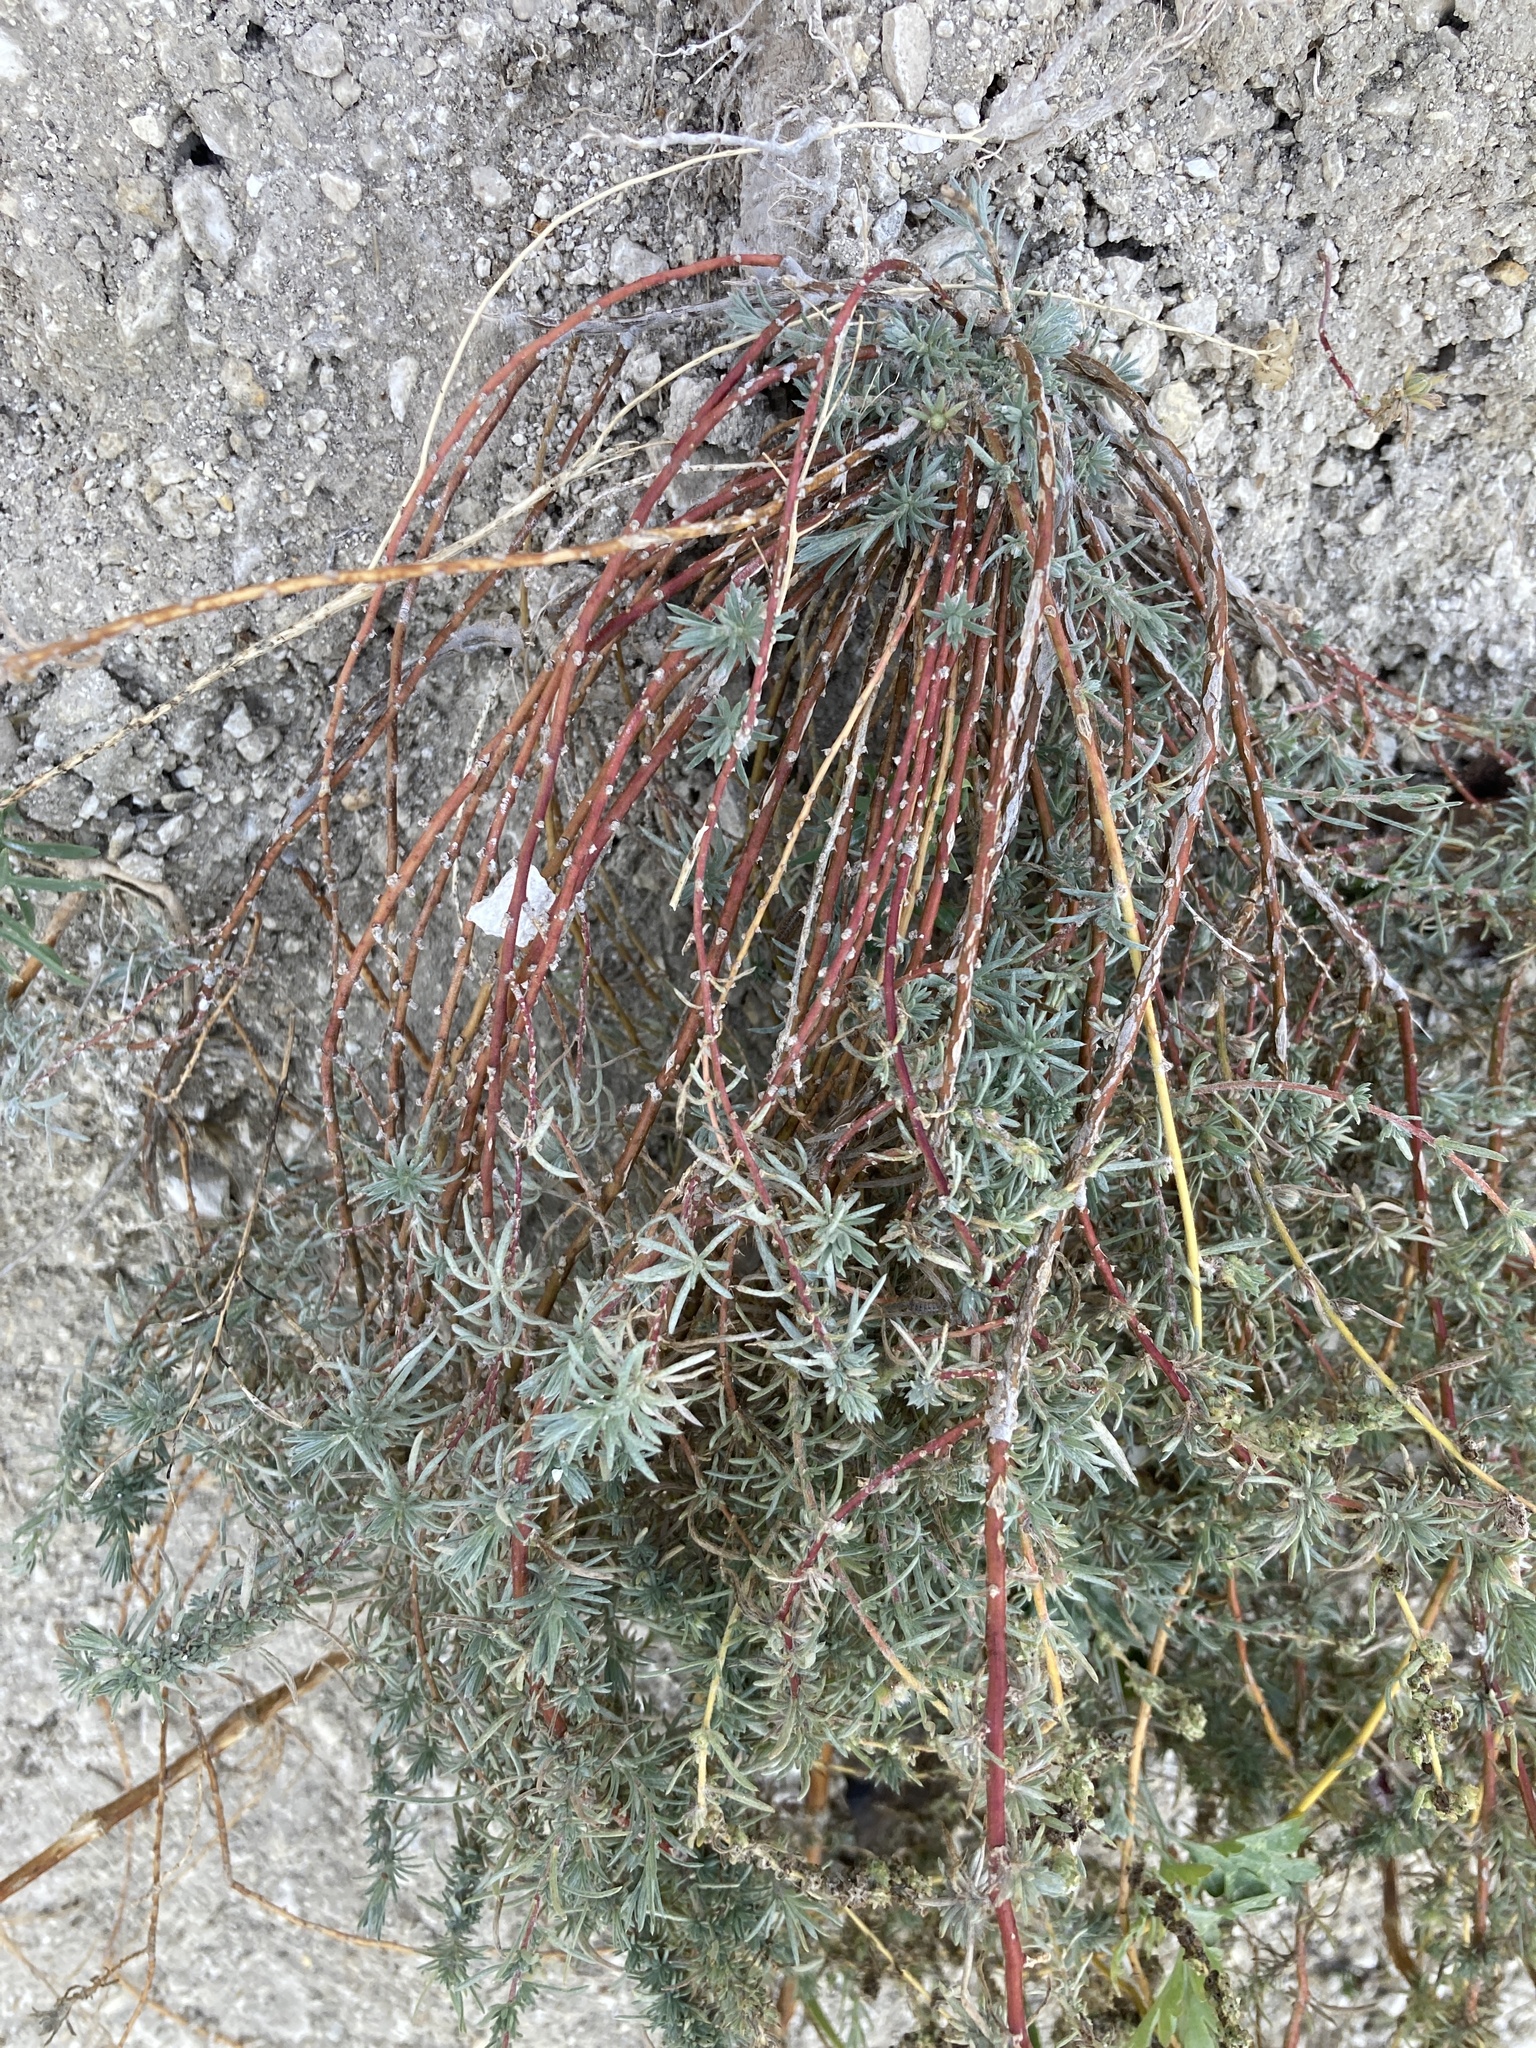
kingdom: Plantae
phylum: Tracheophyta
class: Magnoliopsida
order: Caryophyllales
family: Amaranthaceae
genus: Bassia
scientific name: Bassia prostrata
